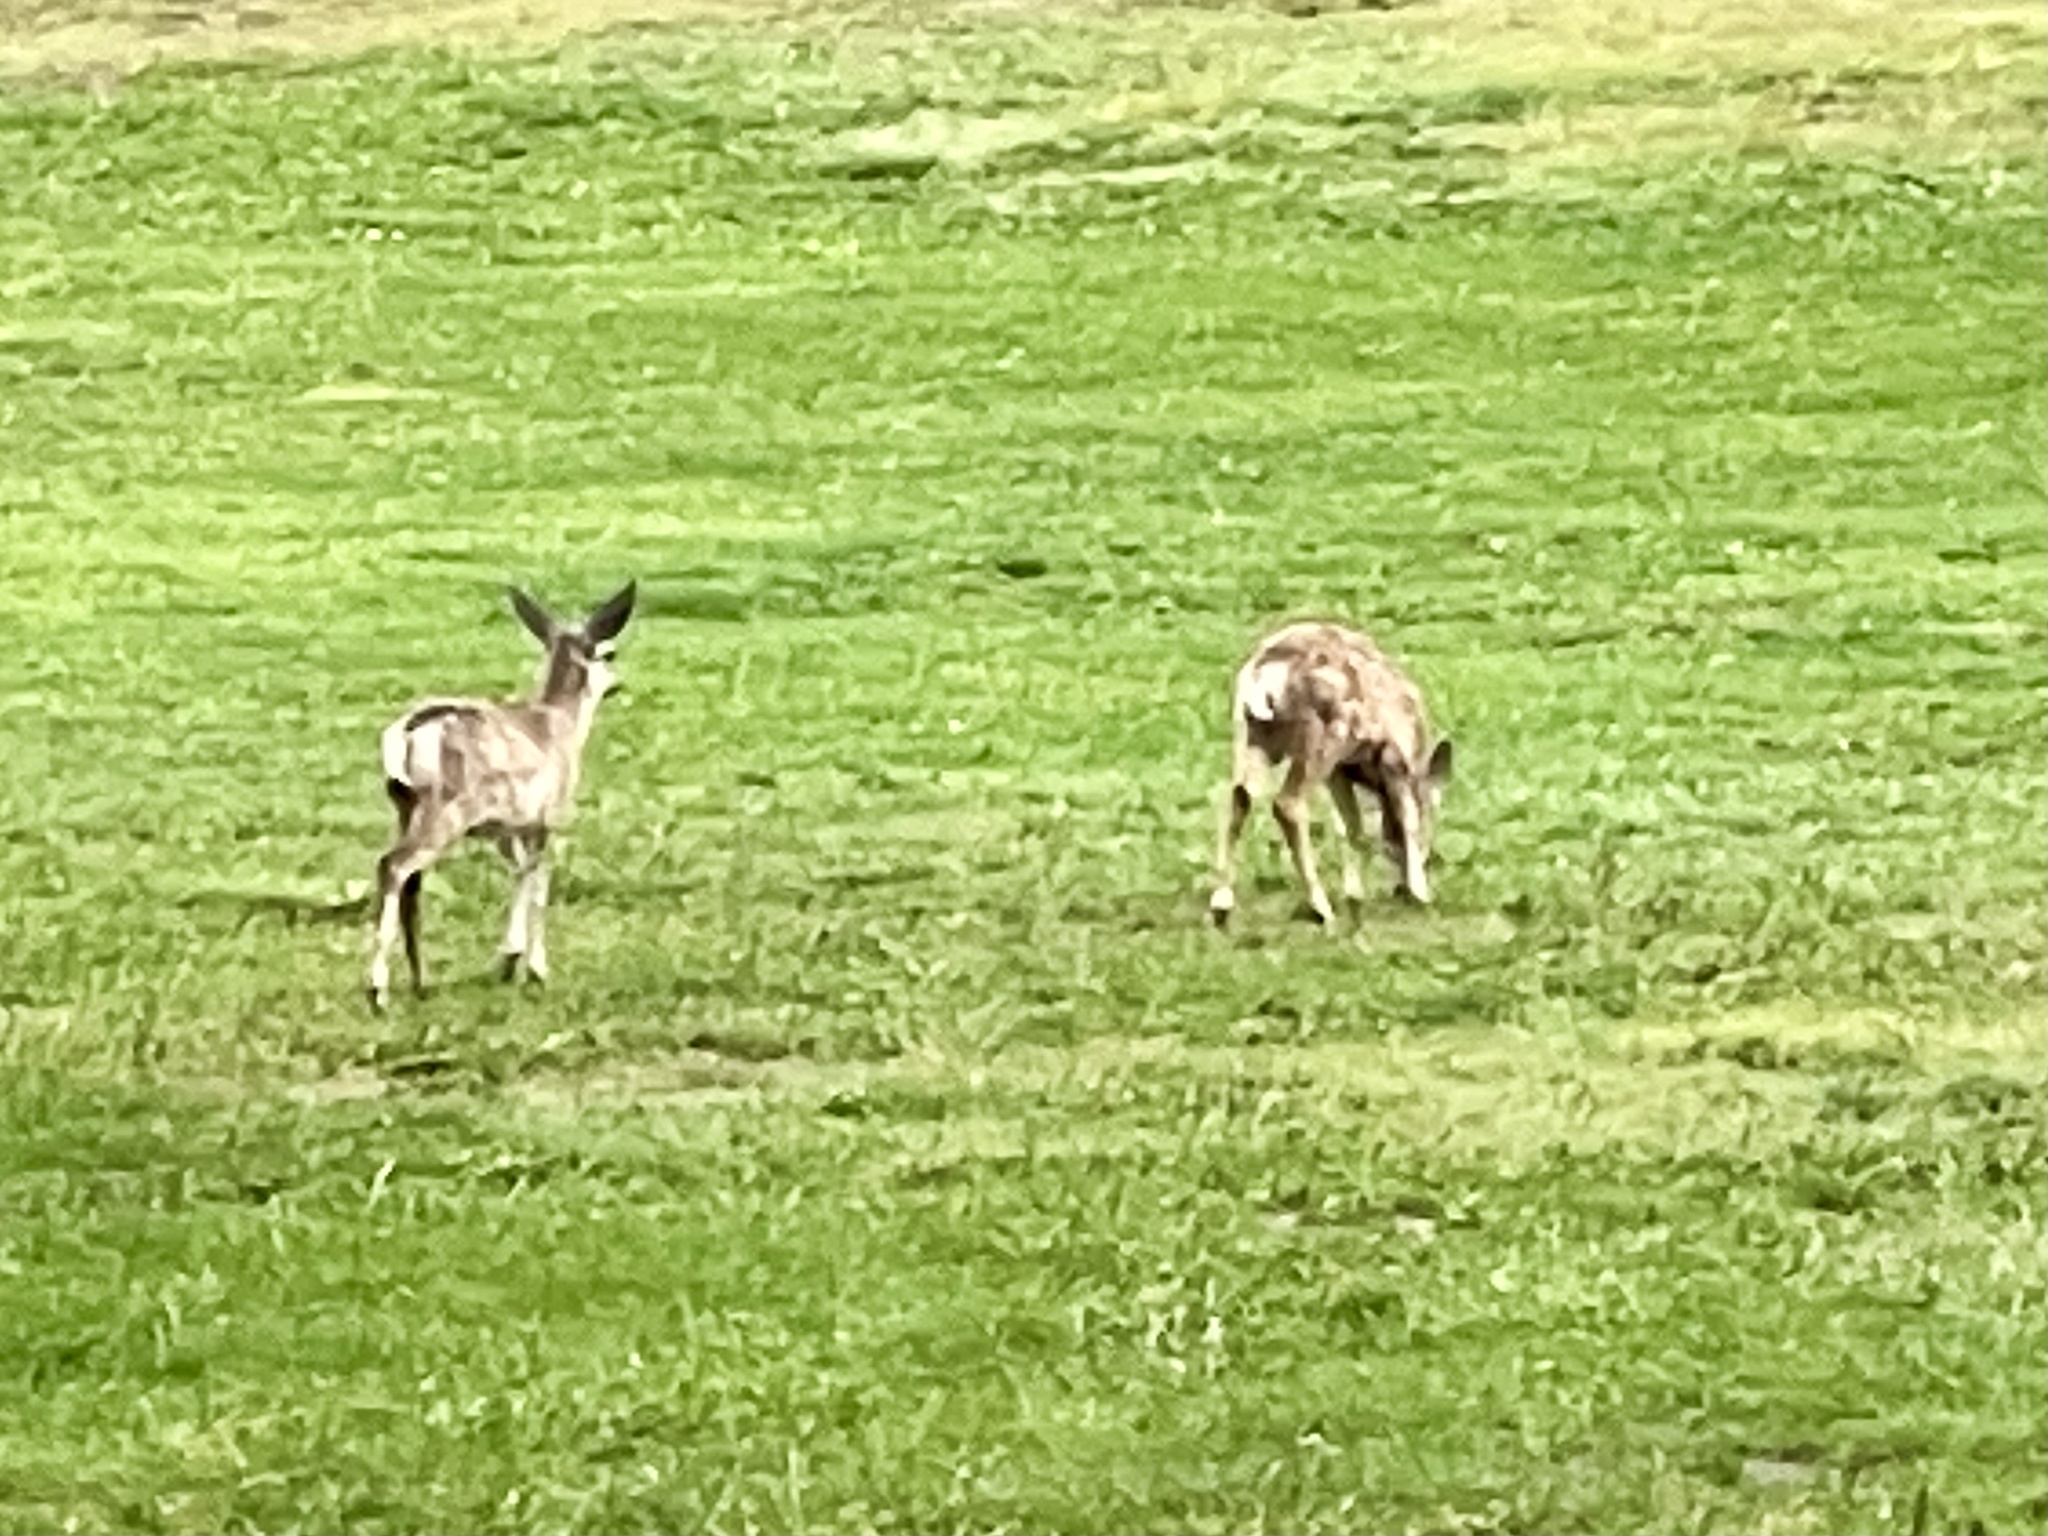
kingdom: Animalia
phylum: Chordata
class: Mammalia
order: Artiodactyla
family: Cervidae
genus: Odocoileus
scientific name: Odocoileus hemionus
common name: Mule deer
